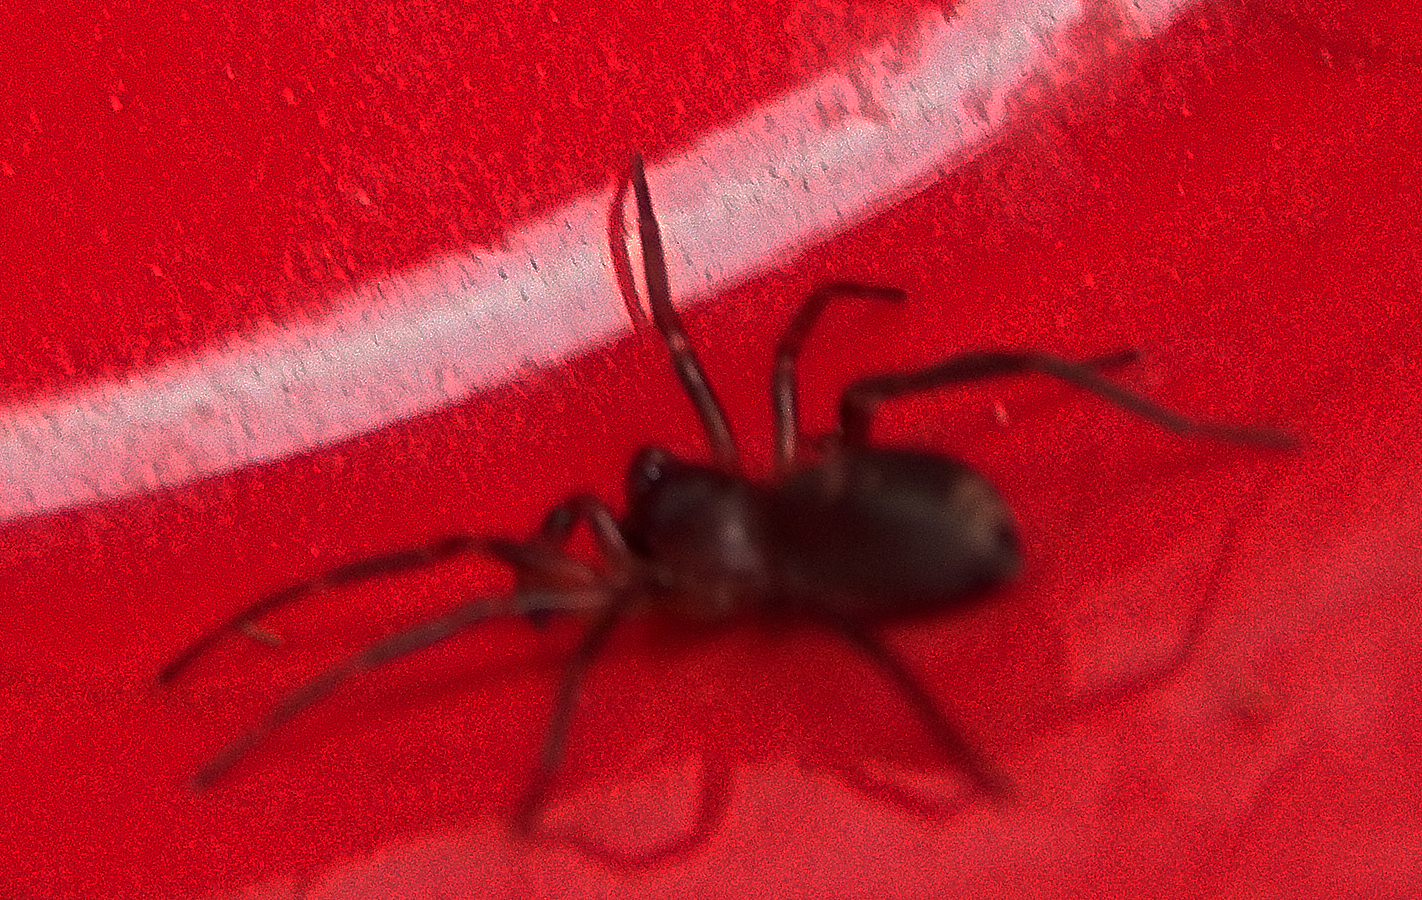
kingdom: Animalia
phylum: Arthropoda
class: Arachnida
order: Araneae
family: Corinnidae
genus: Falconina
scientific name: Falconina gracilis
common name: Antmimic spider
